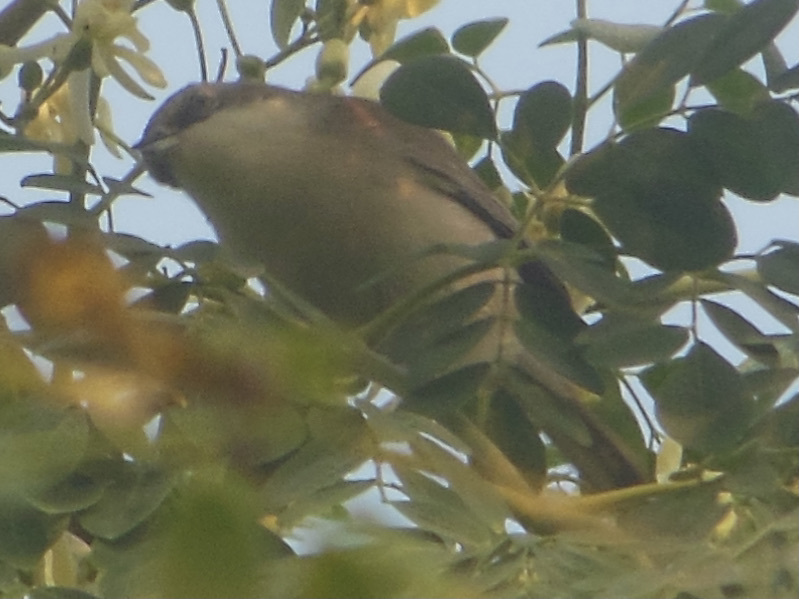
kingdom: Animalia
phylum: Chordata
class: Aves
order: Passeriformes
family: Sylviidae
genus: Sylvia
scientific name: Sylvia curruca
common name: Lesser whitethroat
